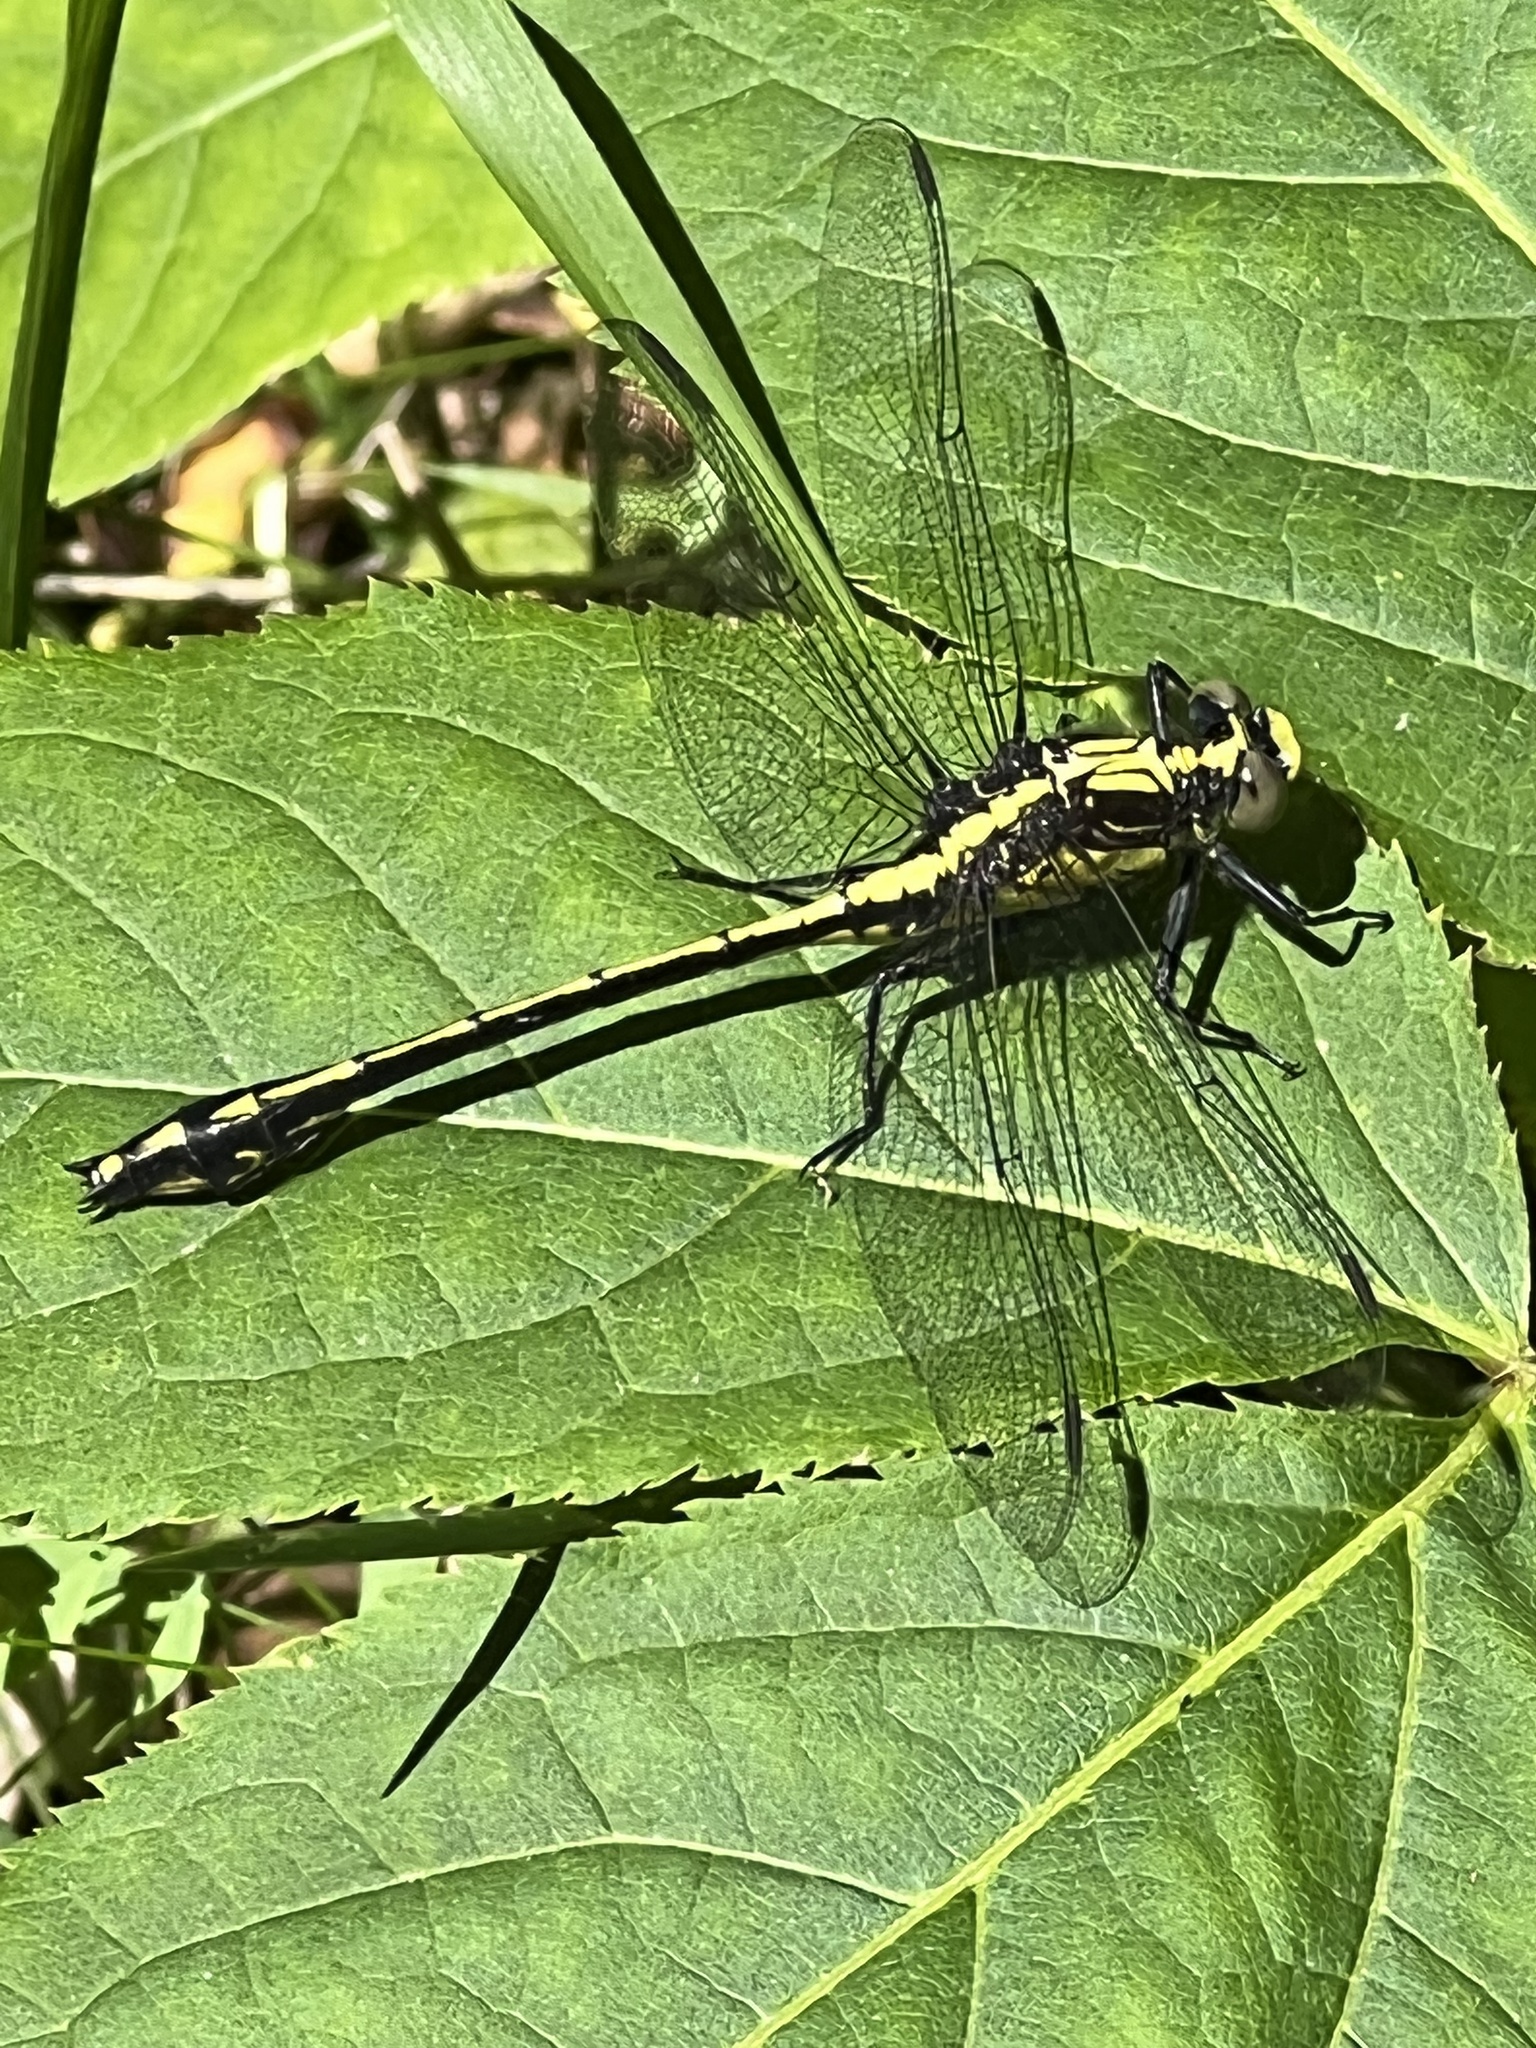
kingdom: Animalia
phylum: Arthropoda
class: Insecta
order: Odonata
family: Gomphidae
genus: Dromogomphus
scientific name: Dromogomphus spinosus
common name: Black-shouldered spinyleg
